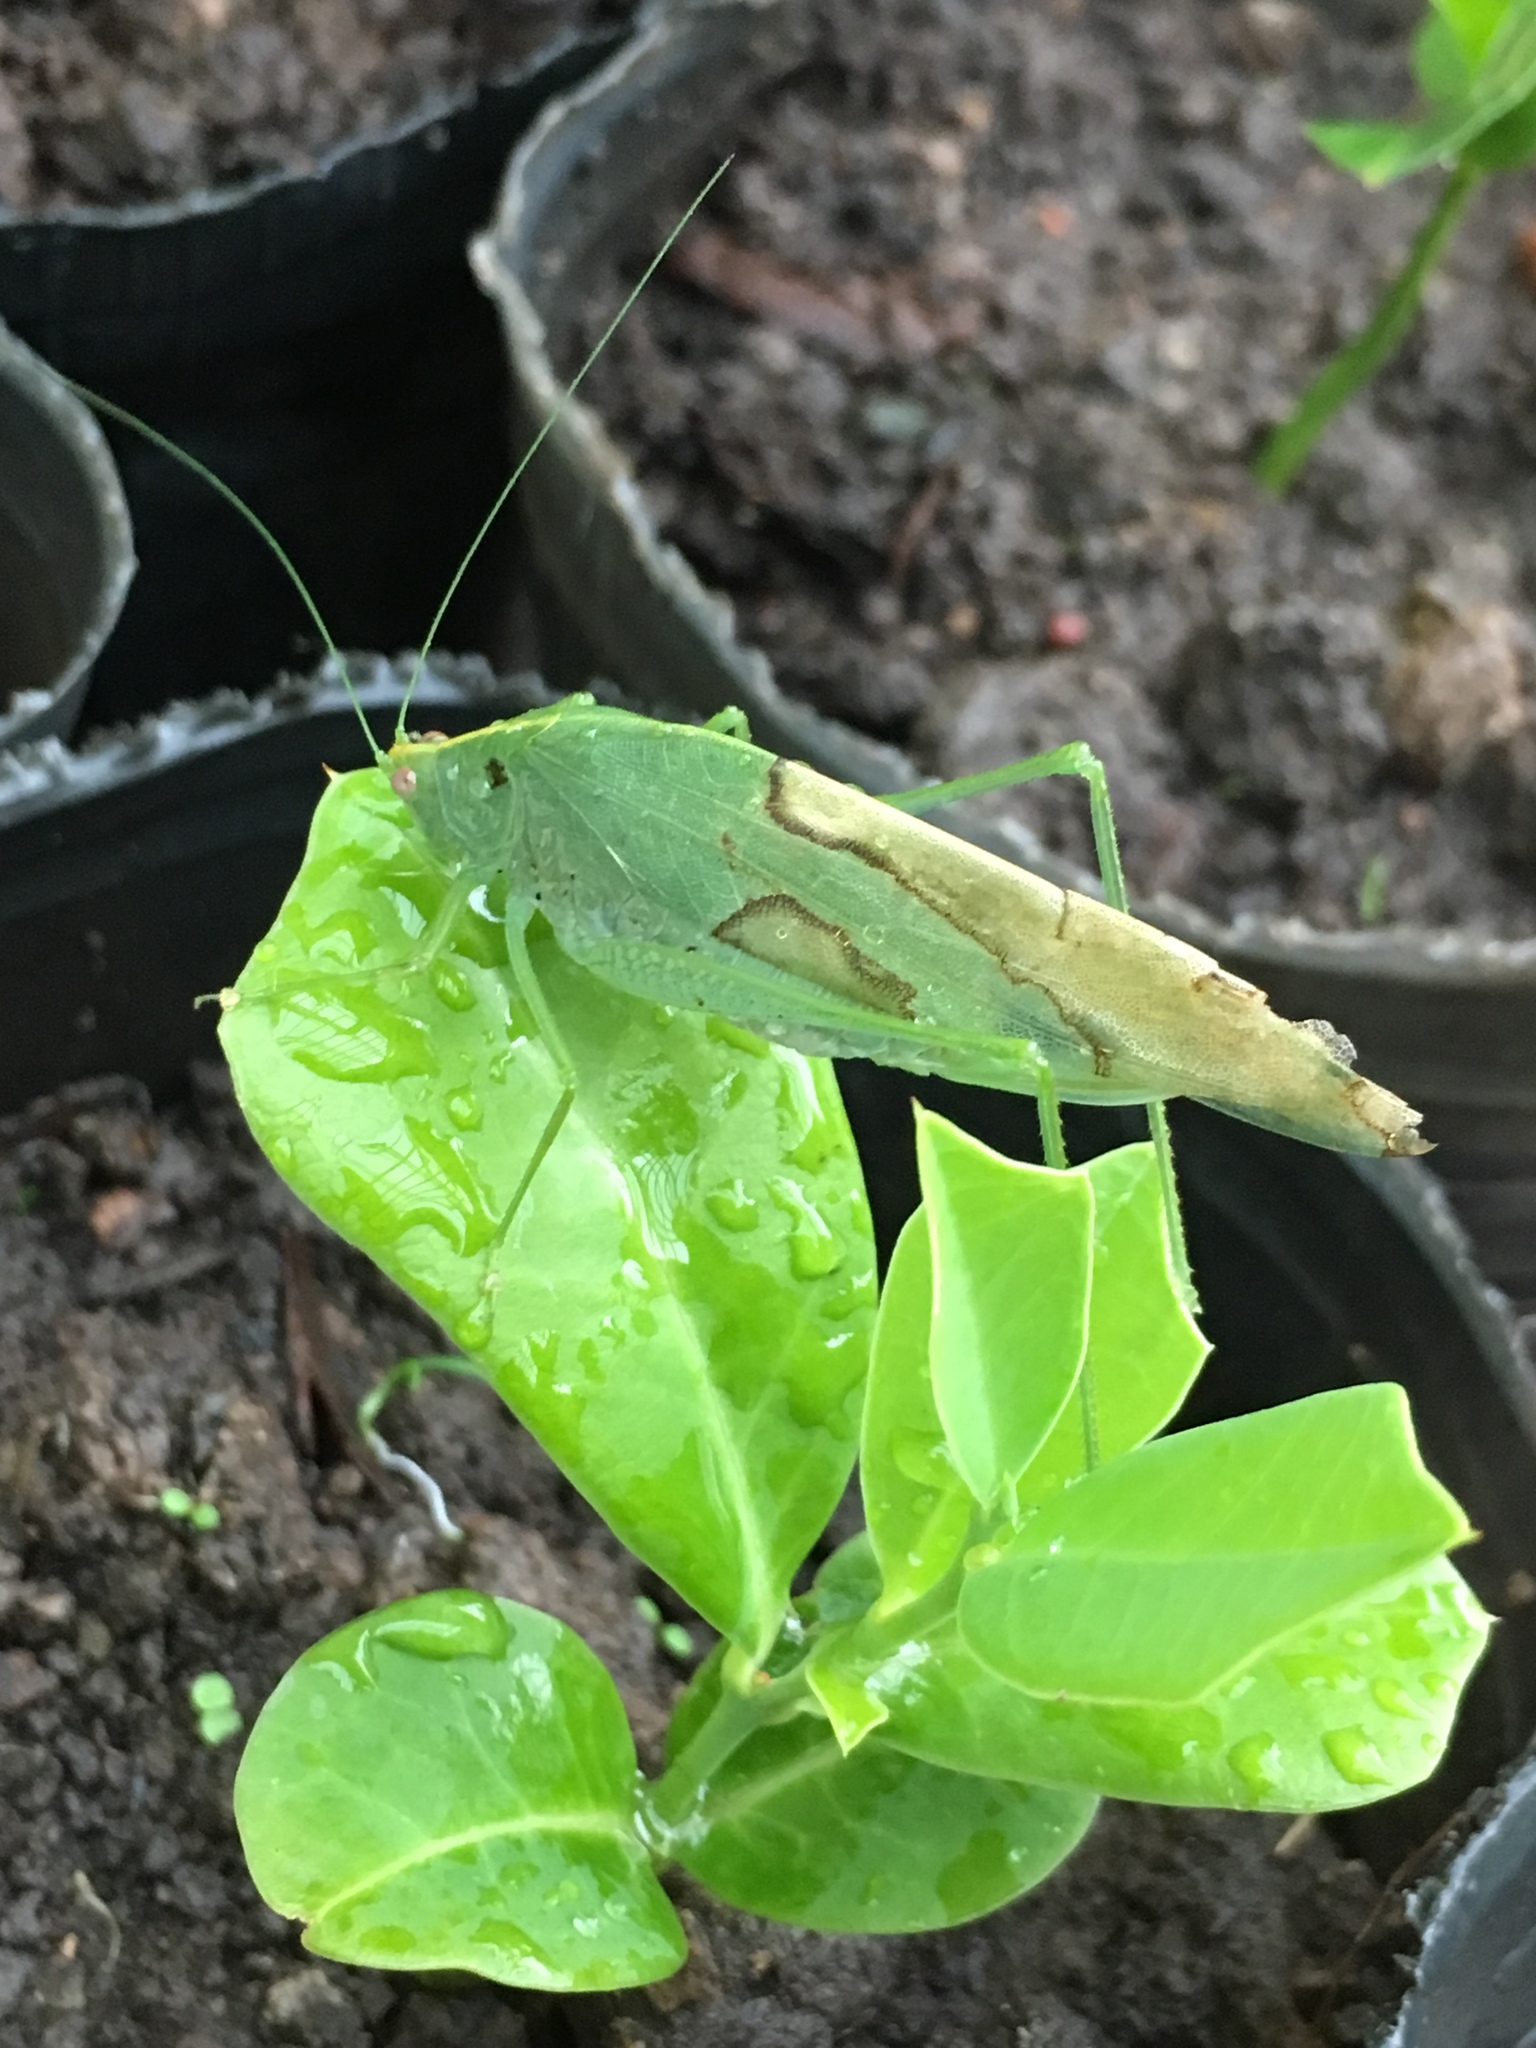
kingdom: Animalia
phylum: Arthropoda
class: Insecta
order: Orthoptera
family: Tettigoniidae
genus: Grammadera
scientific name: Grammadera clara
